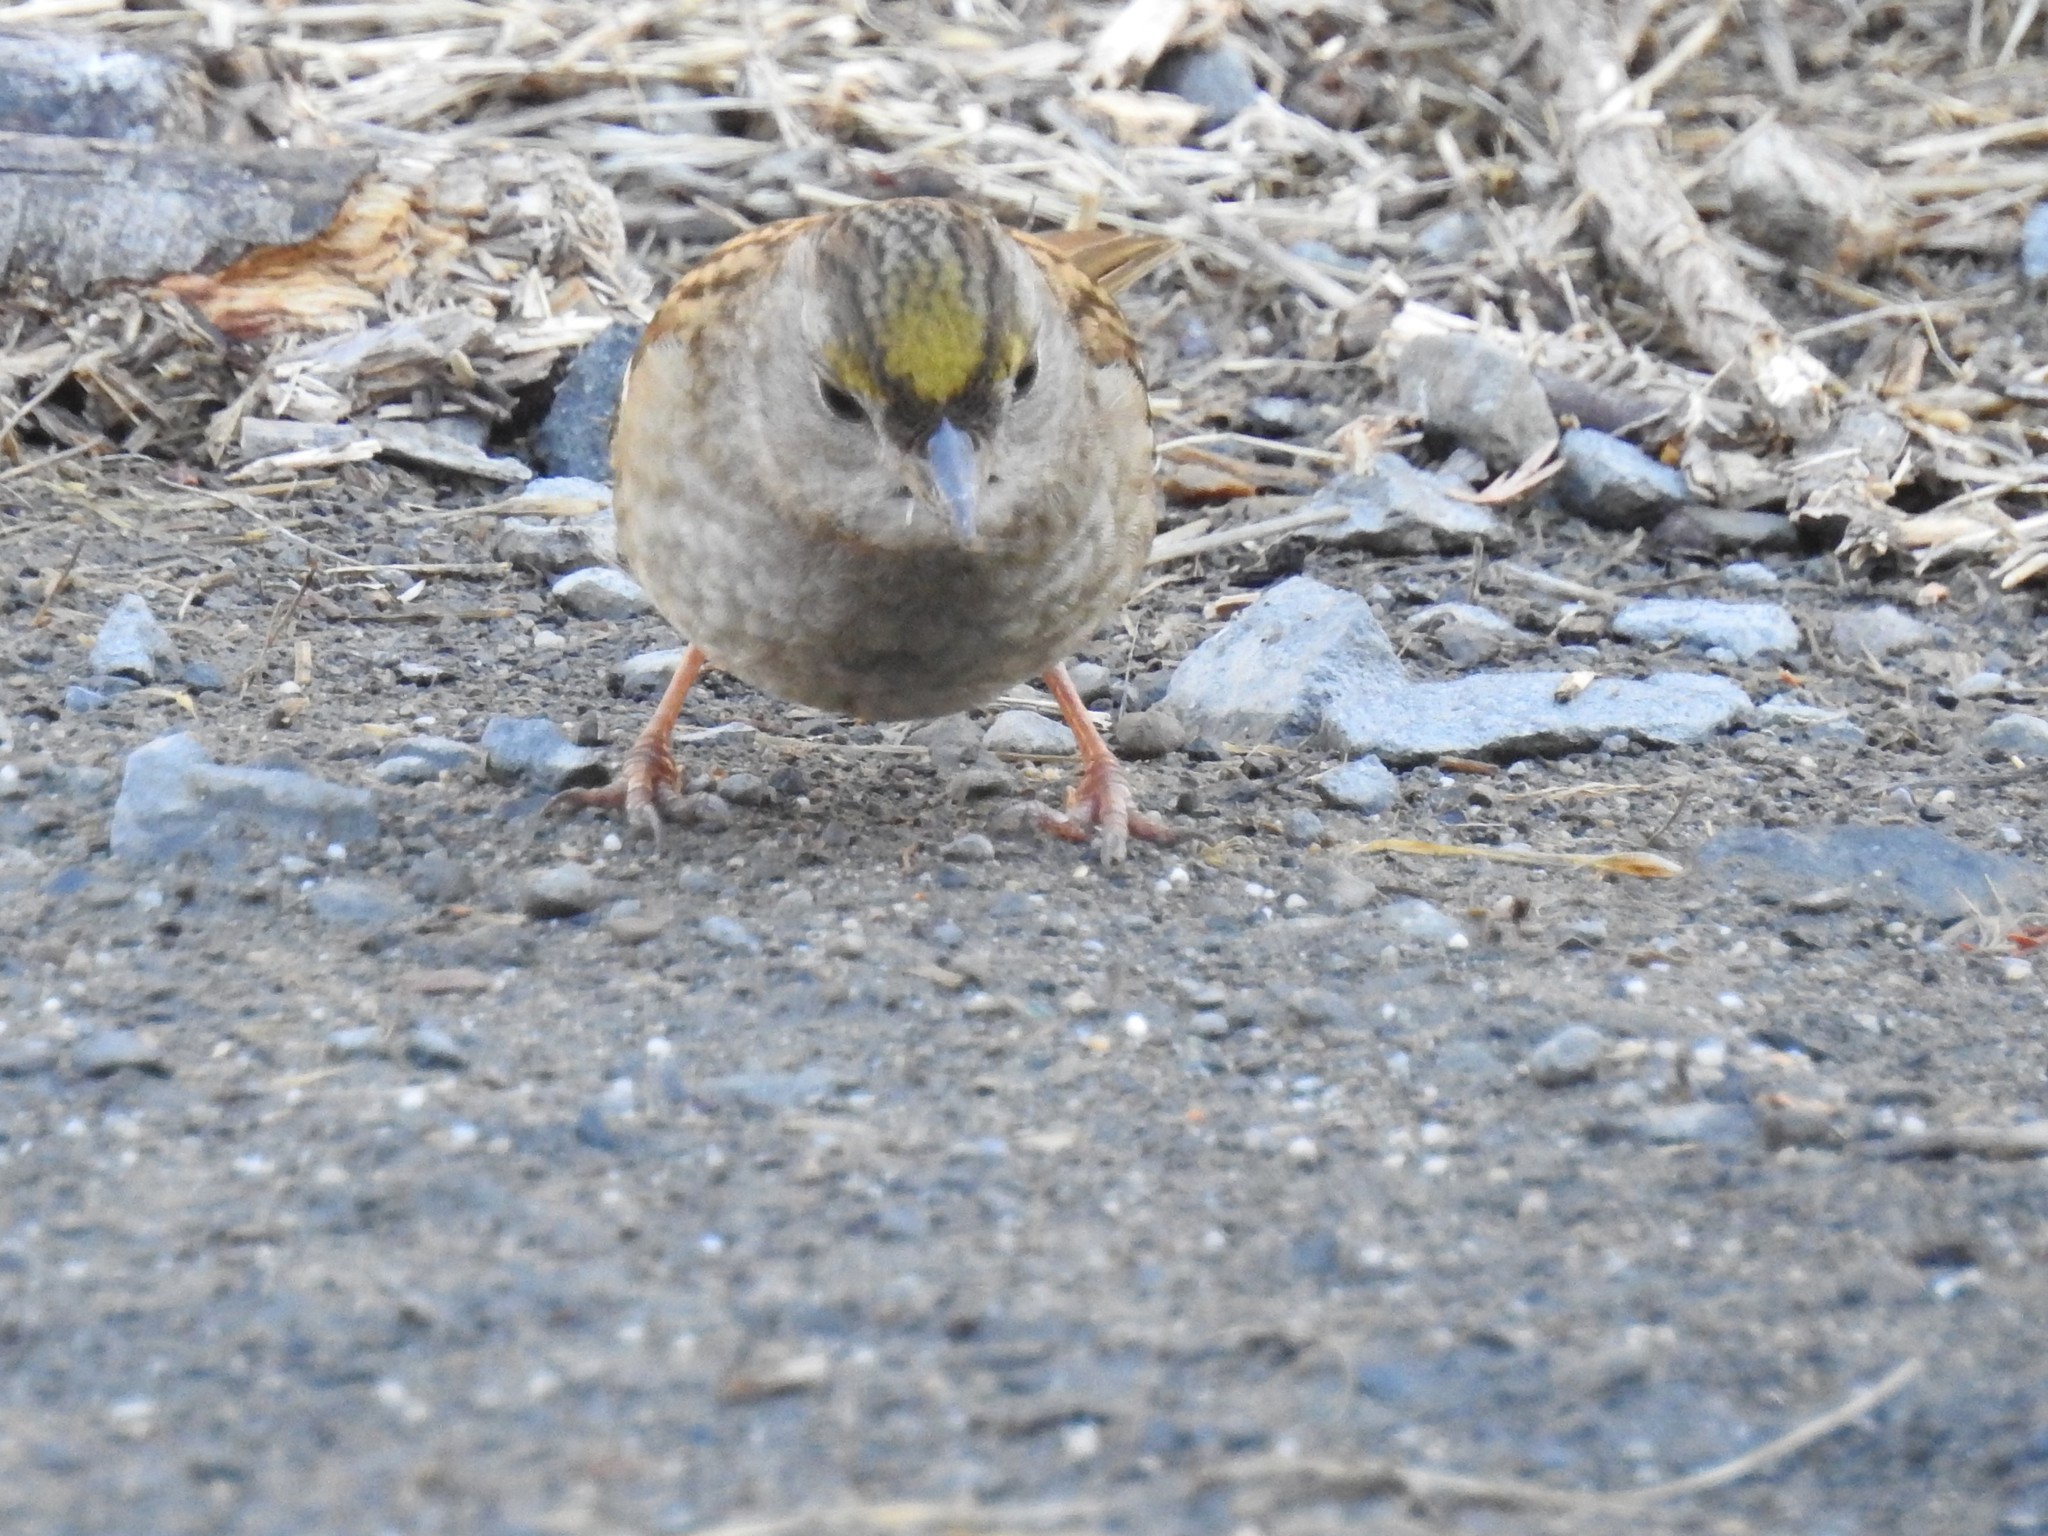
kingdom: Animalia
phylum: Chordata
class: Aves
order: Passeriformes
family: Passerellidae
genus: Zonotrichia
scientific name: Zonotrichia atricapilla
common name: Golden-crowned sparrow
